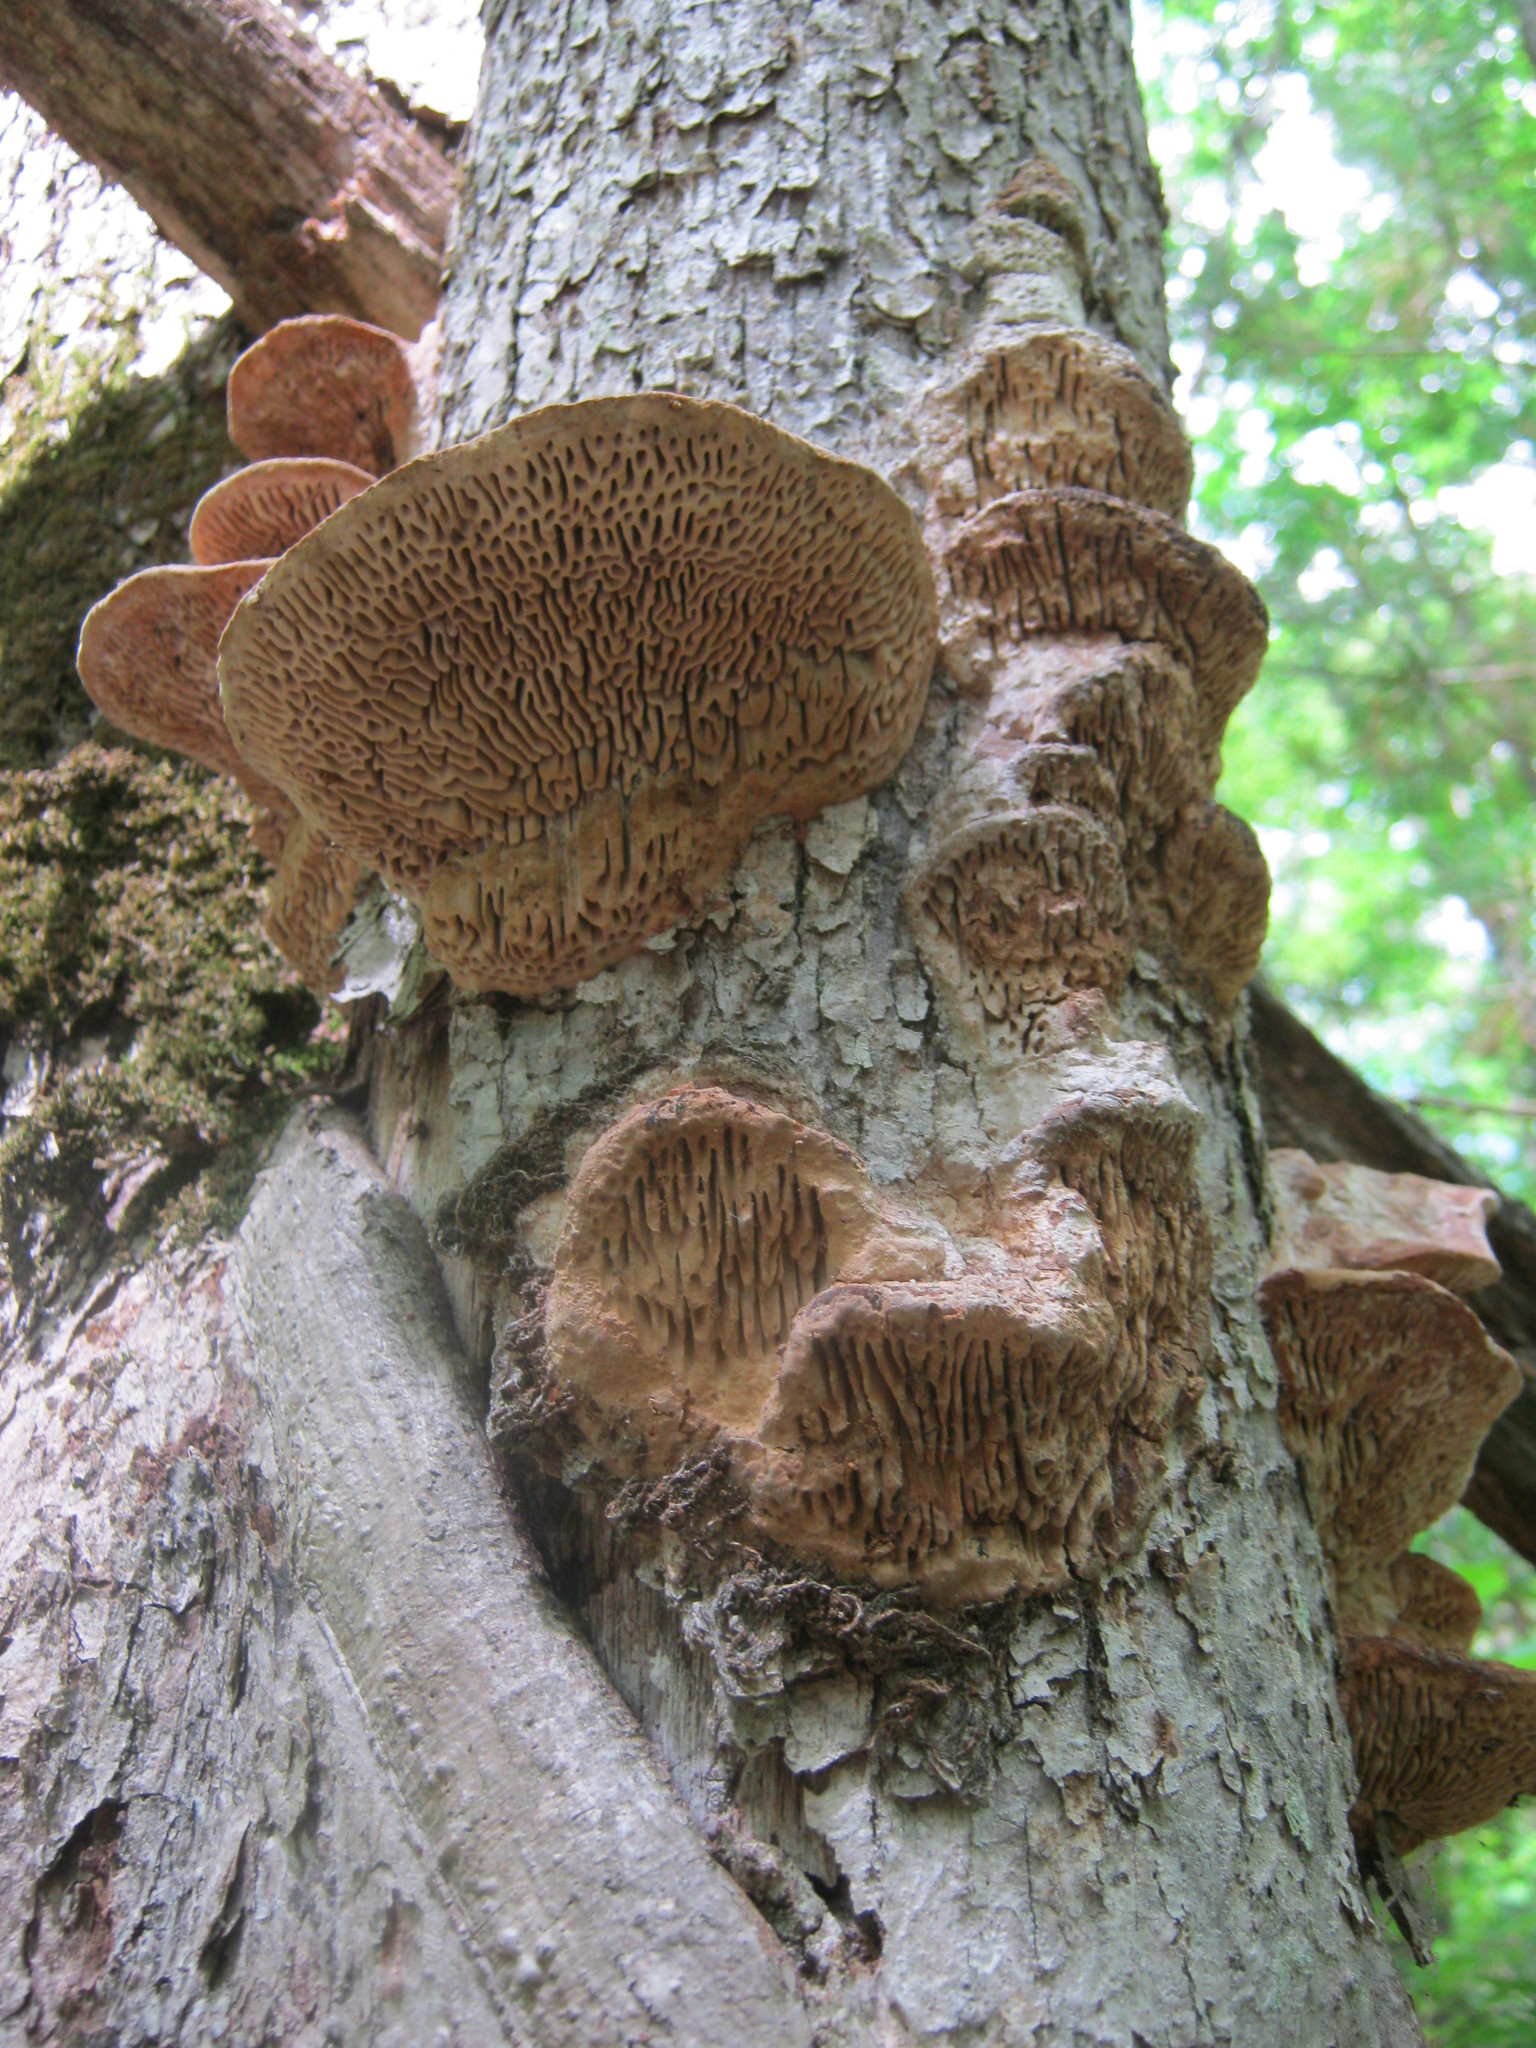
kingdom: Fungi
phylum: Basidiomycota
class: Agaricomycetes
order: Polyporales
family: Fomitopsidaceae
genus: Fomitopsis
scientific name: Fomitopsis
